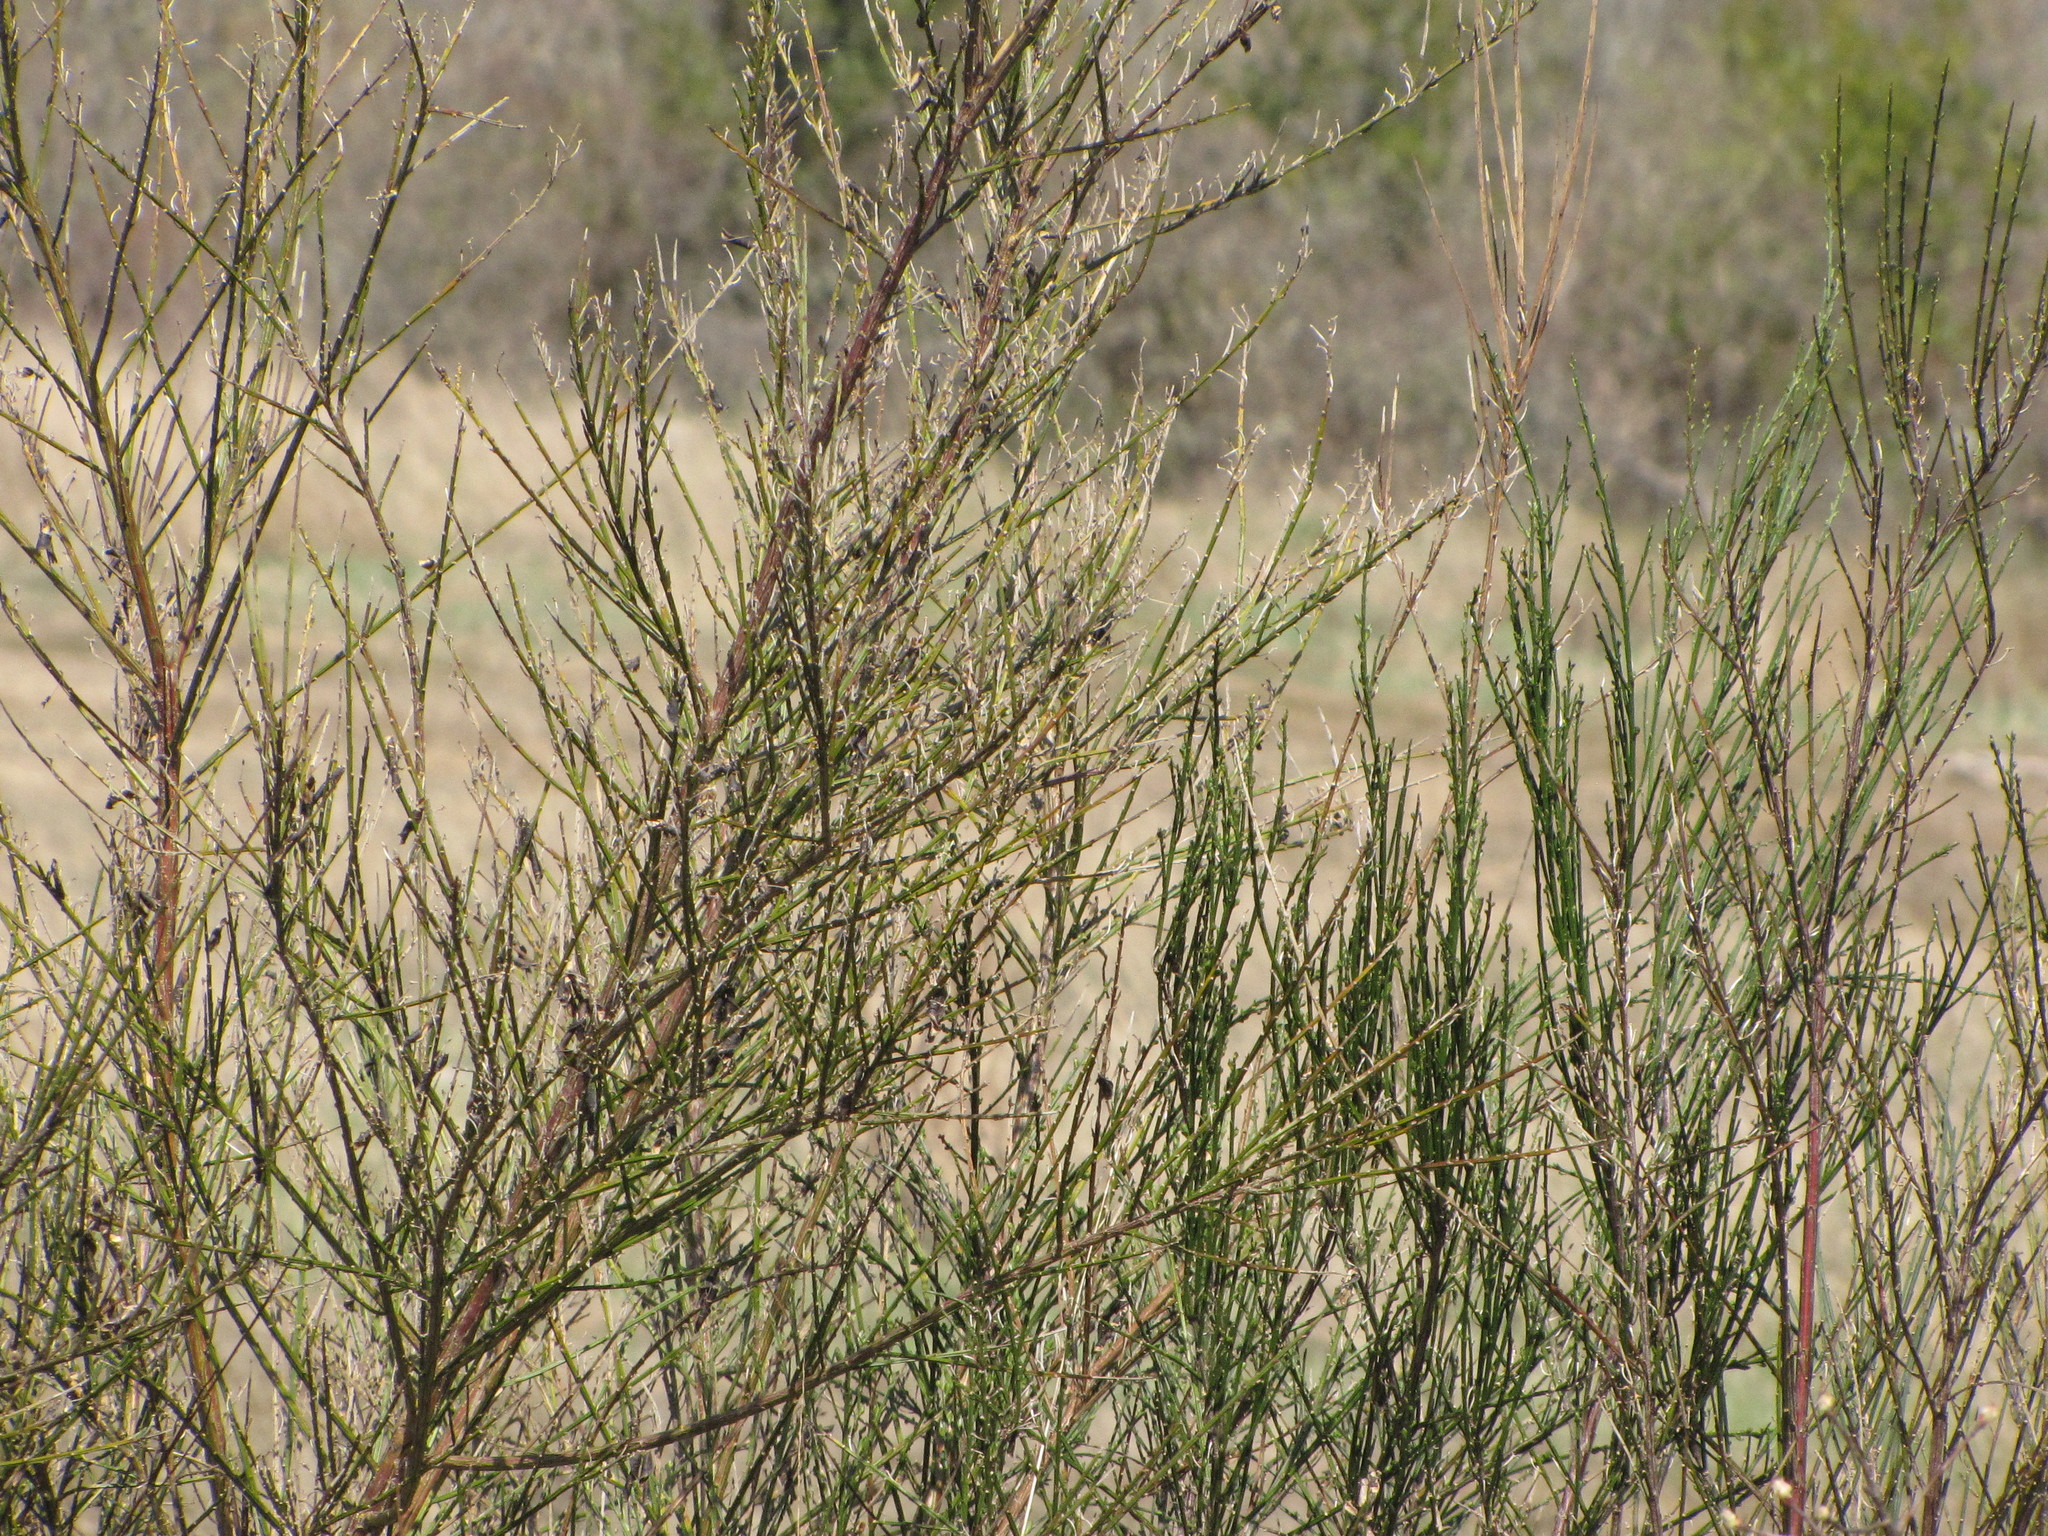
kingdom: Plantae
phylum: Tracheophyta
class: Magnoliopsida
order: Fabales
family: Fabaceae
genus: Cytisus
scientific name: Cytisus scoparius
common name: Scotch broom
